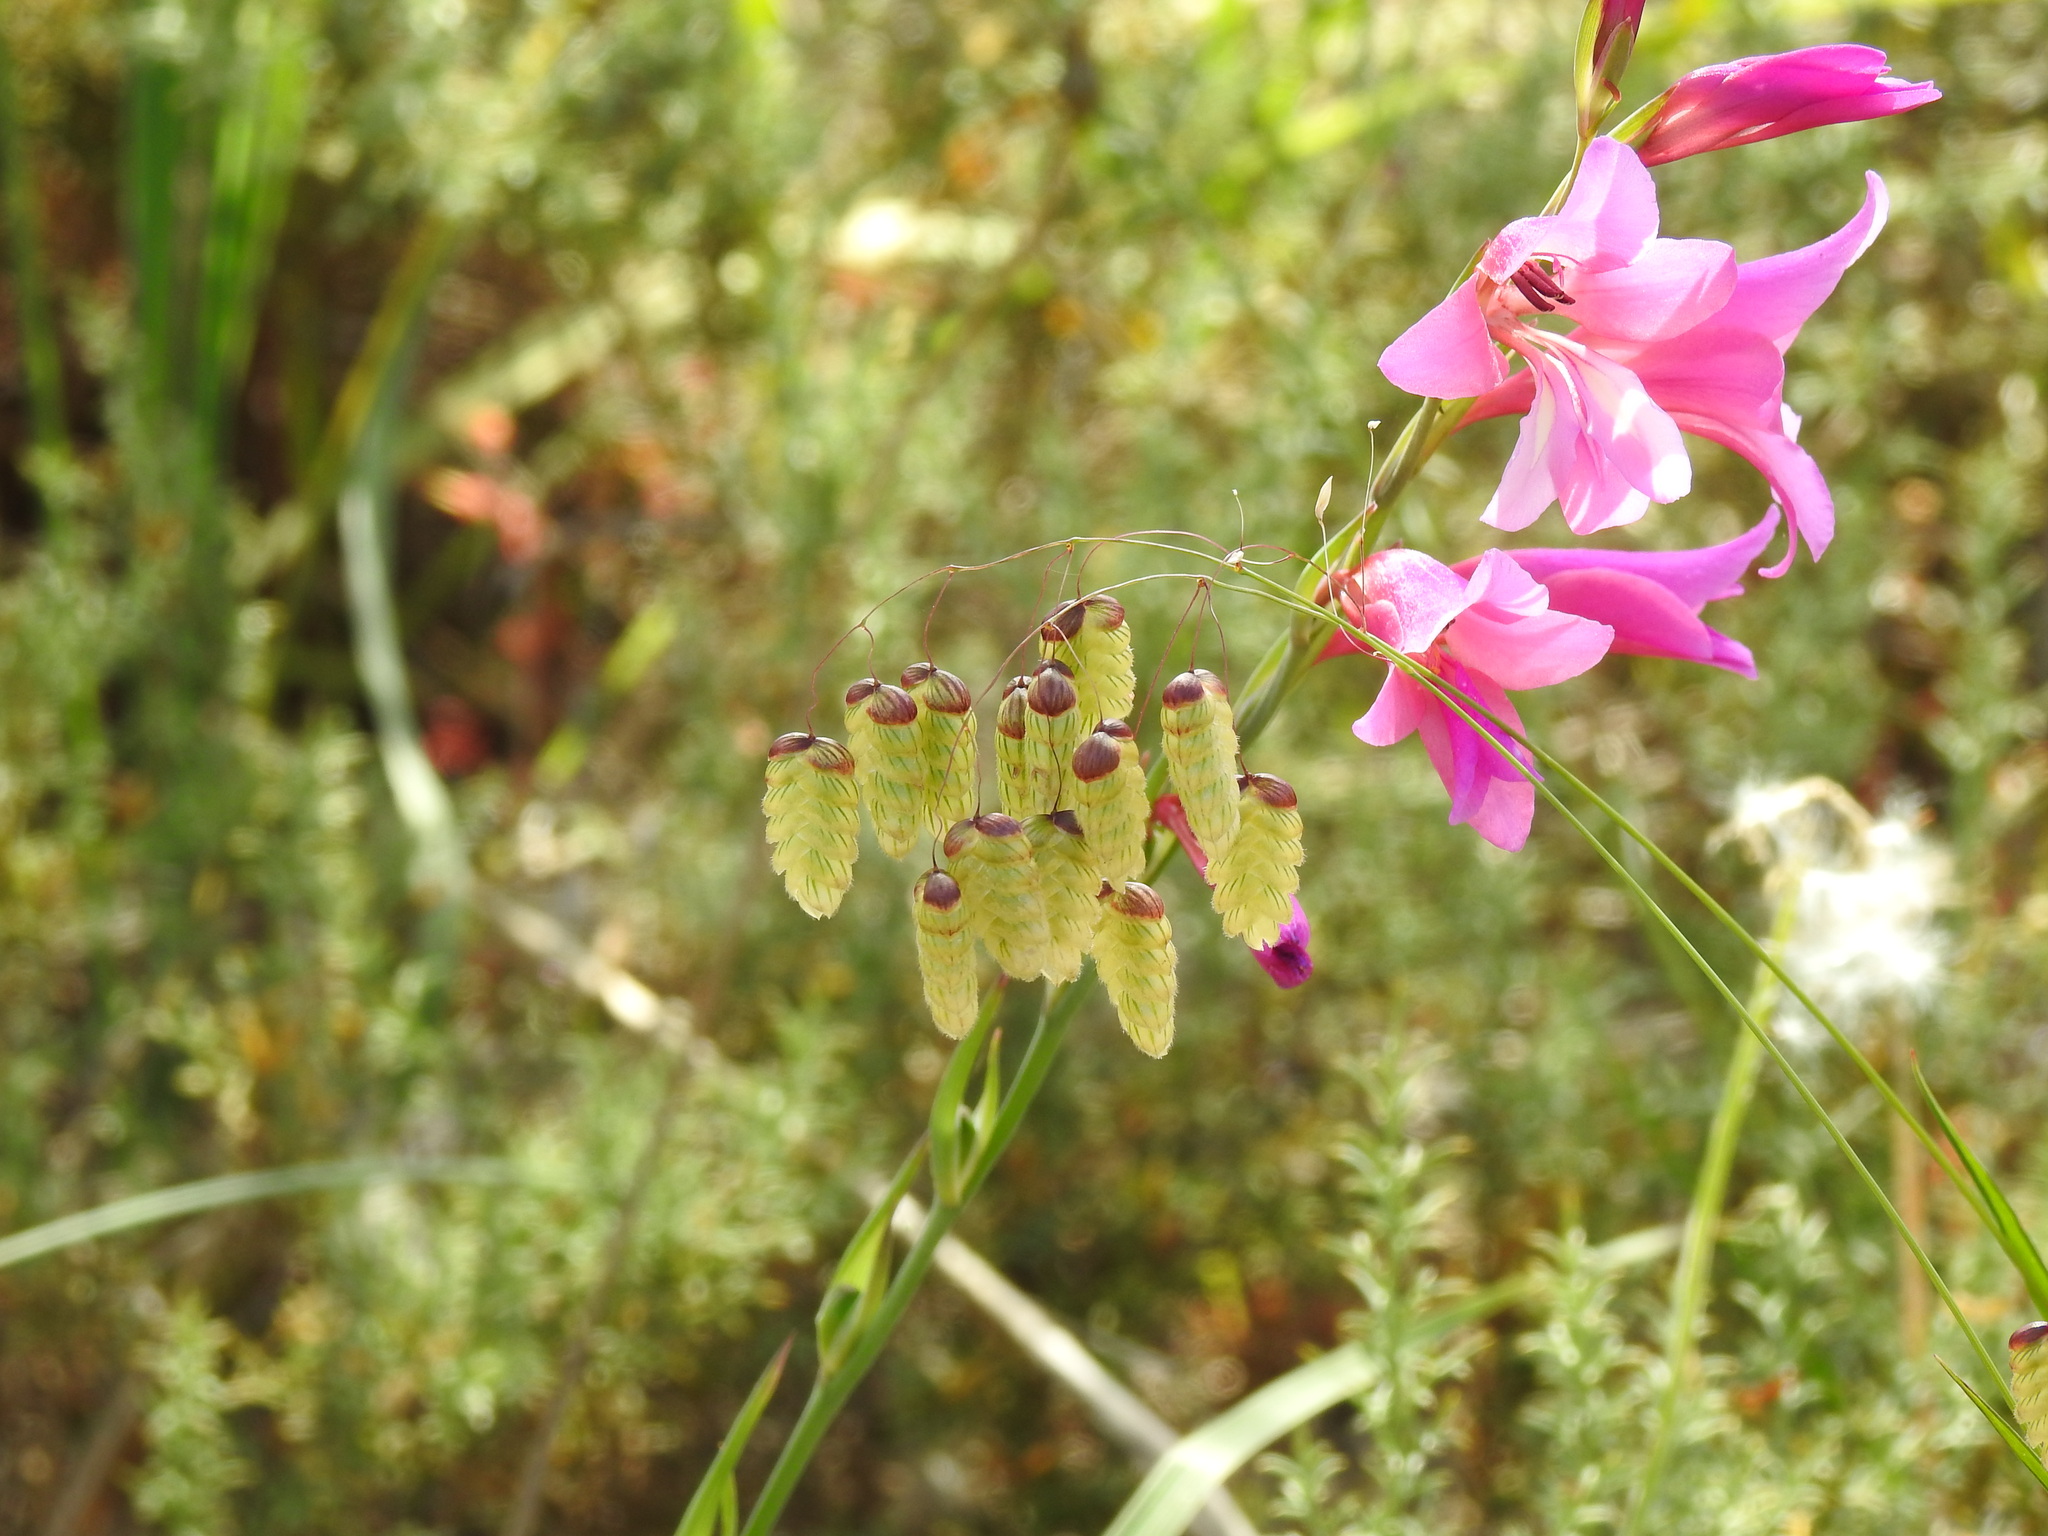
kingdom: Plantae
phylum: Tracheophyta
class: Liliopsida
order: Poales
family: Poaceae
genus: Briza
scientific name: Briza maxima
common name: Big quakinggrass
